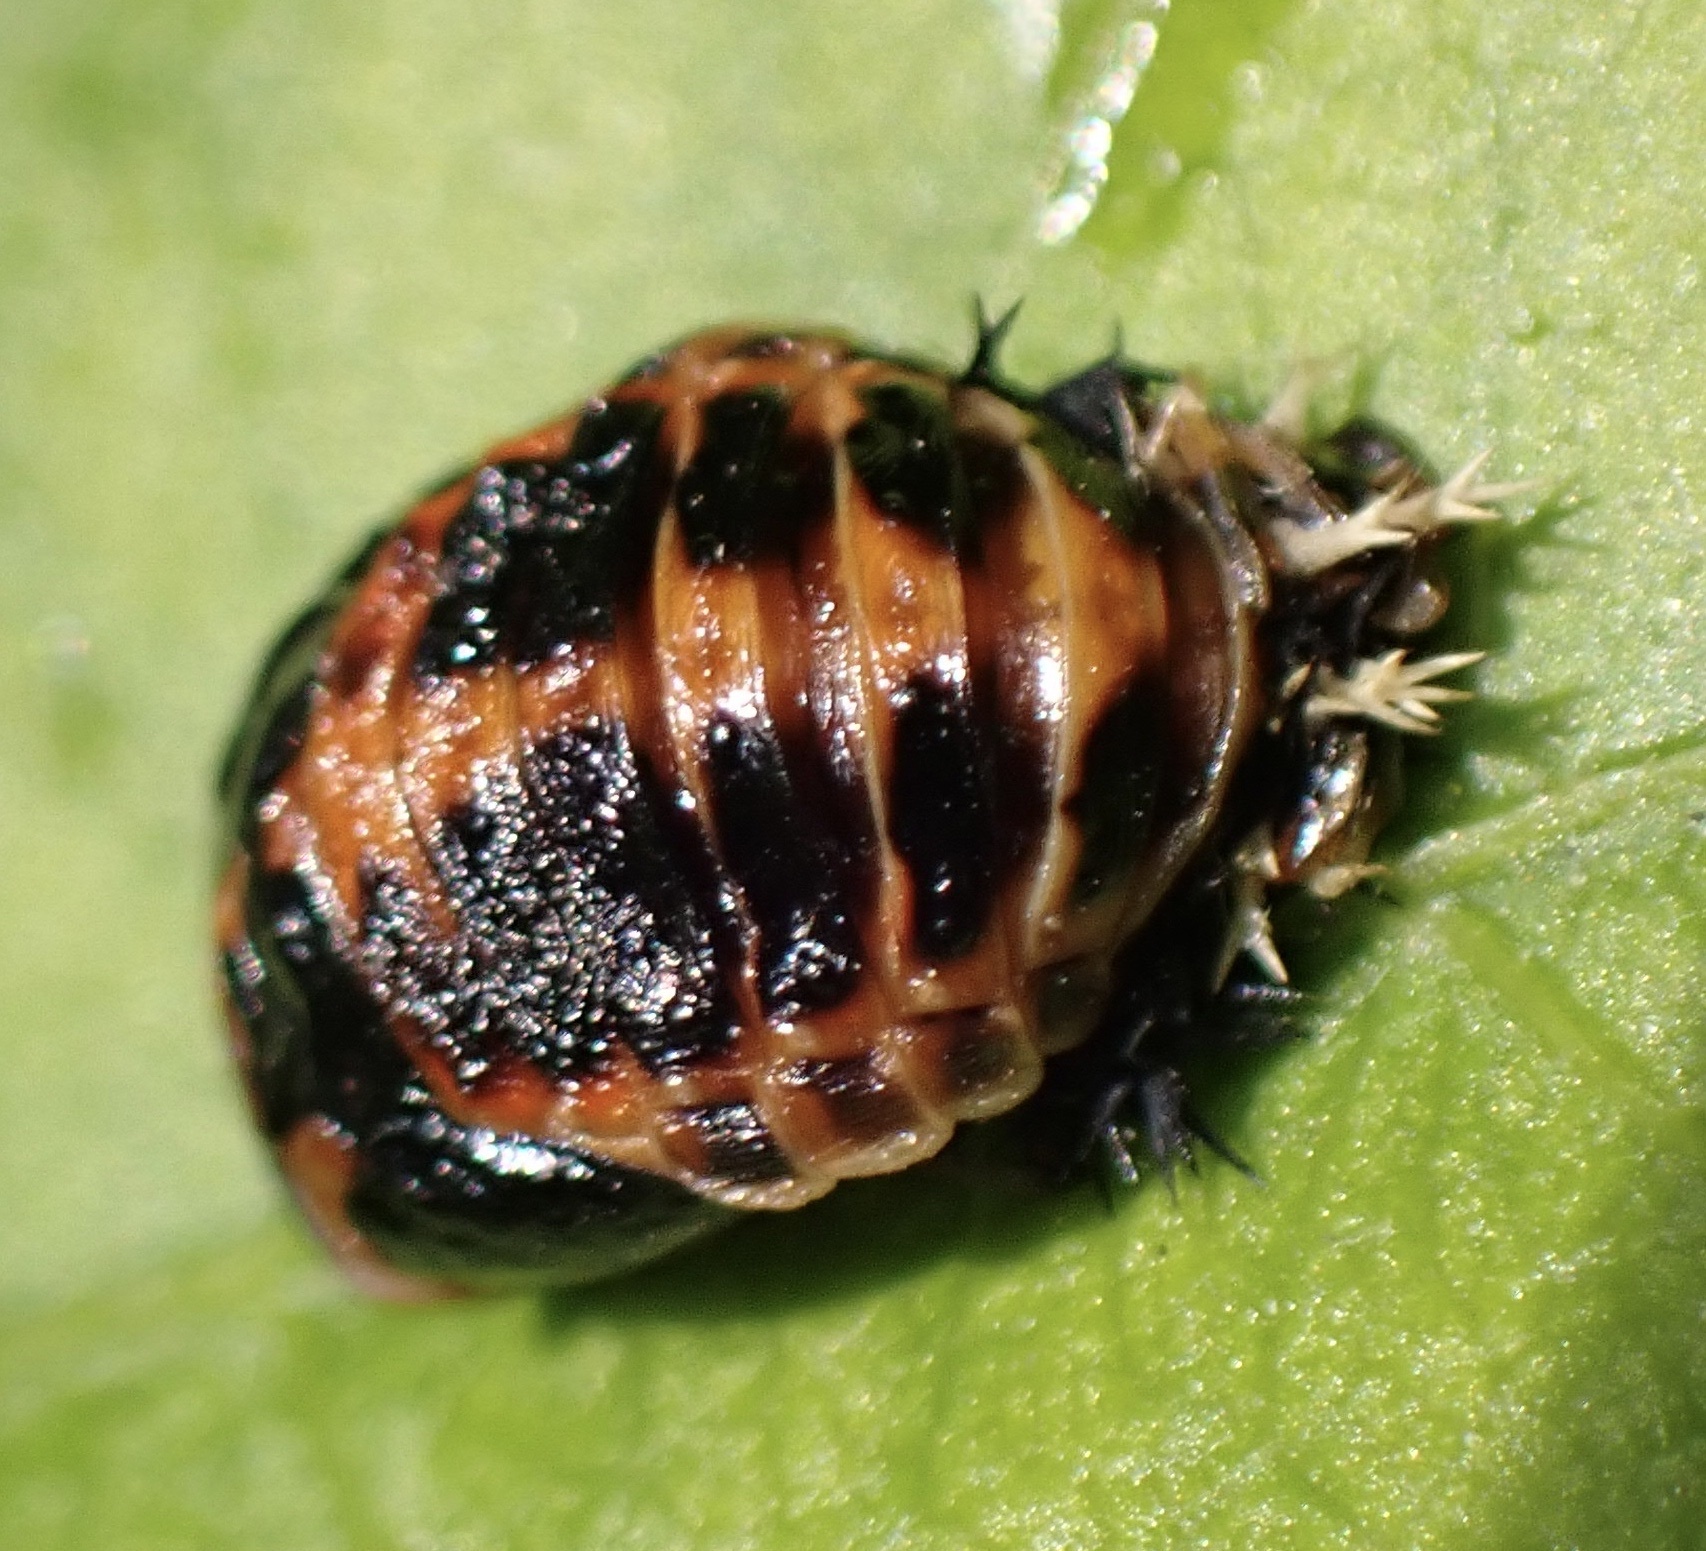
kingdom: Animalia
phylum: Arthropoda
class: Insecta
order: Coleoptera
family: Coccinellidae
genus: Harmonia
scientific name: Harmonia axyridis
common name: Harlequin ladybird
